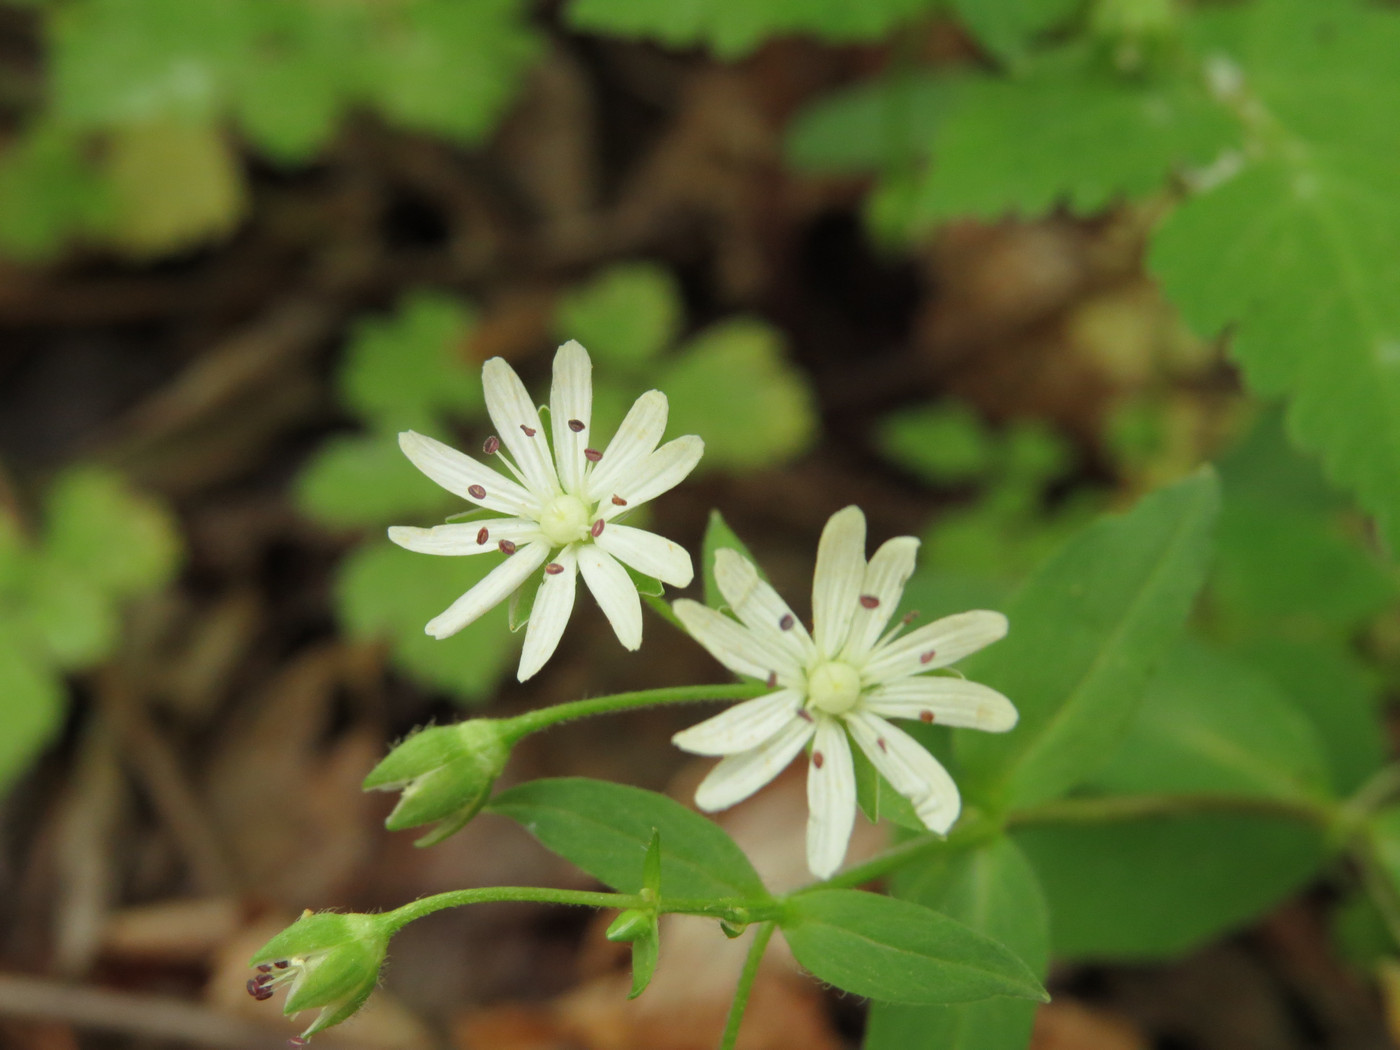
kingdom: Plantae
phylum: Tracheophyta
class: Magnoliopsida
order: Caryophyllales
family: Caryophyllaceae
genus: Stellaria
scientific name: Stellaria pubera
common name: Star chickweed
